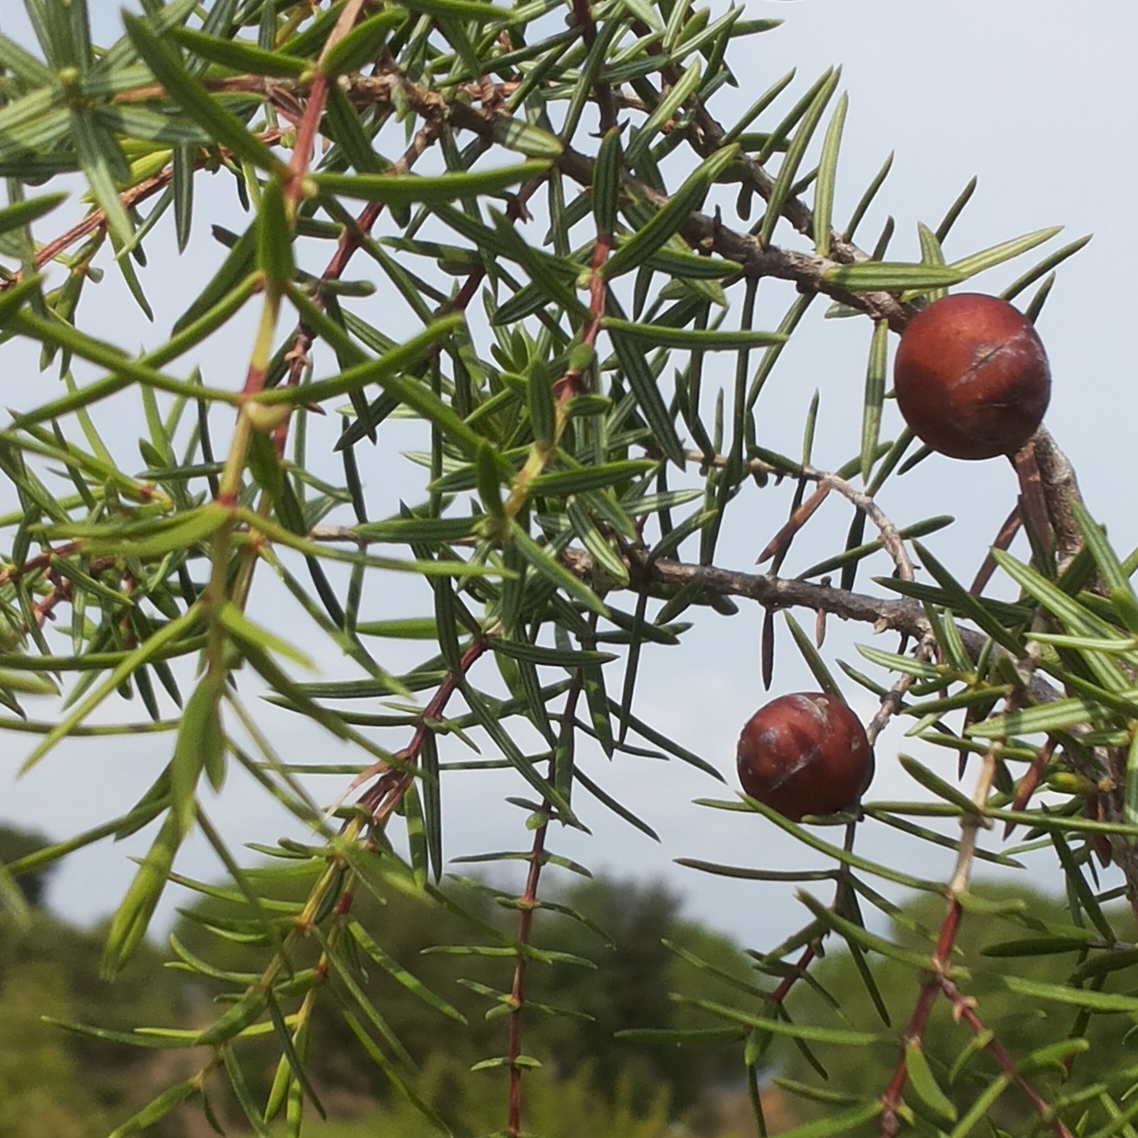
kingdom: Plantae
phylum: Tracheophyta
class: Pinopsida
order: Pinales
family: Cupressaceae
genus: Juniperus
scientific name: Juniperus oxycedrus
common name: Prickly juniper
